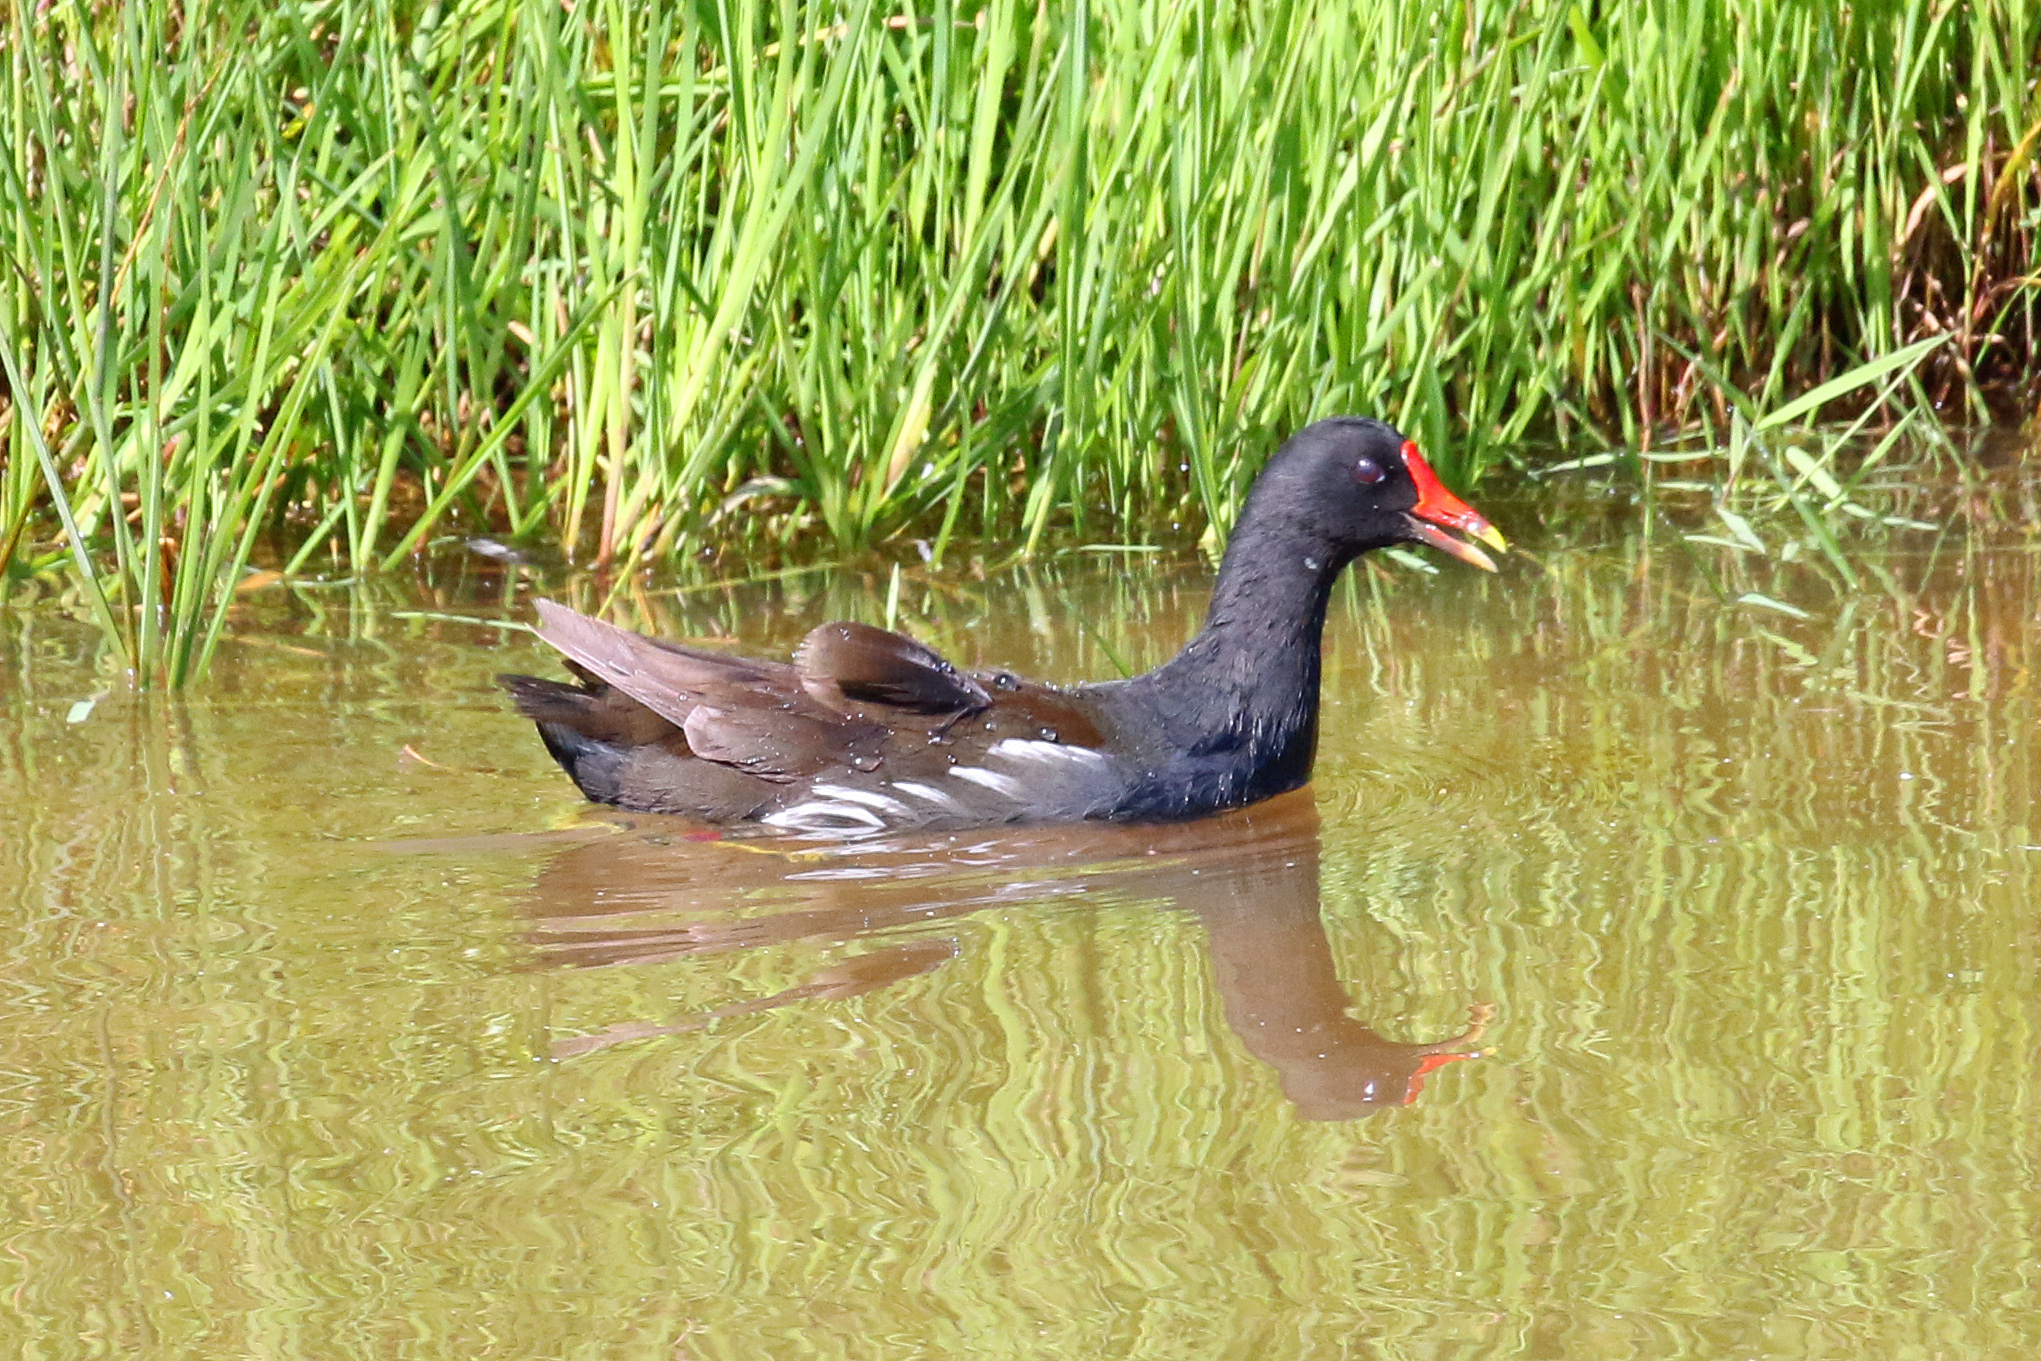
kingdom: Animalia
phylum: Chordata
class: Aves
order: Gruiformes
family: Rallidae
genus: Gallinula
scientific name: Gallinula chloropus
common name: Common moorhen
